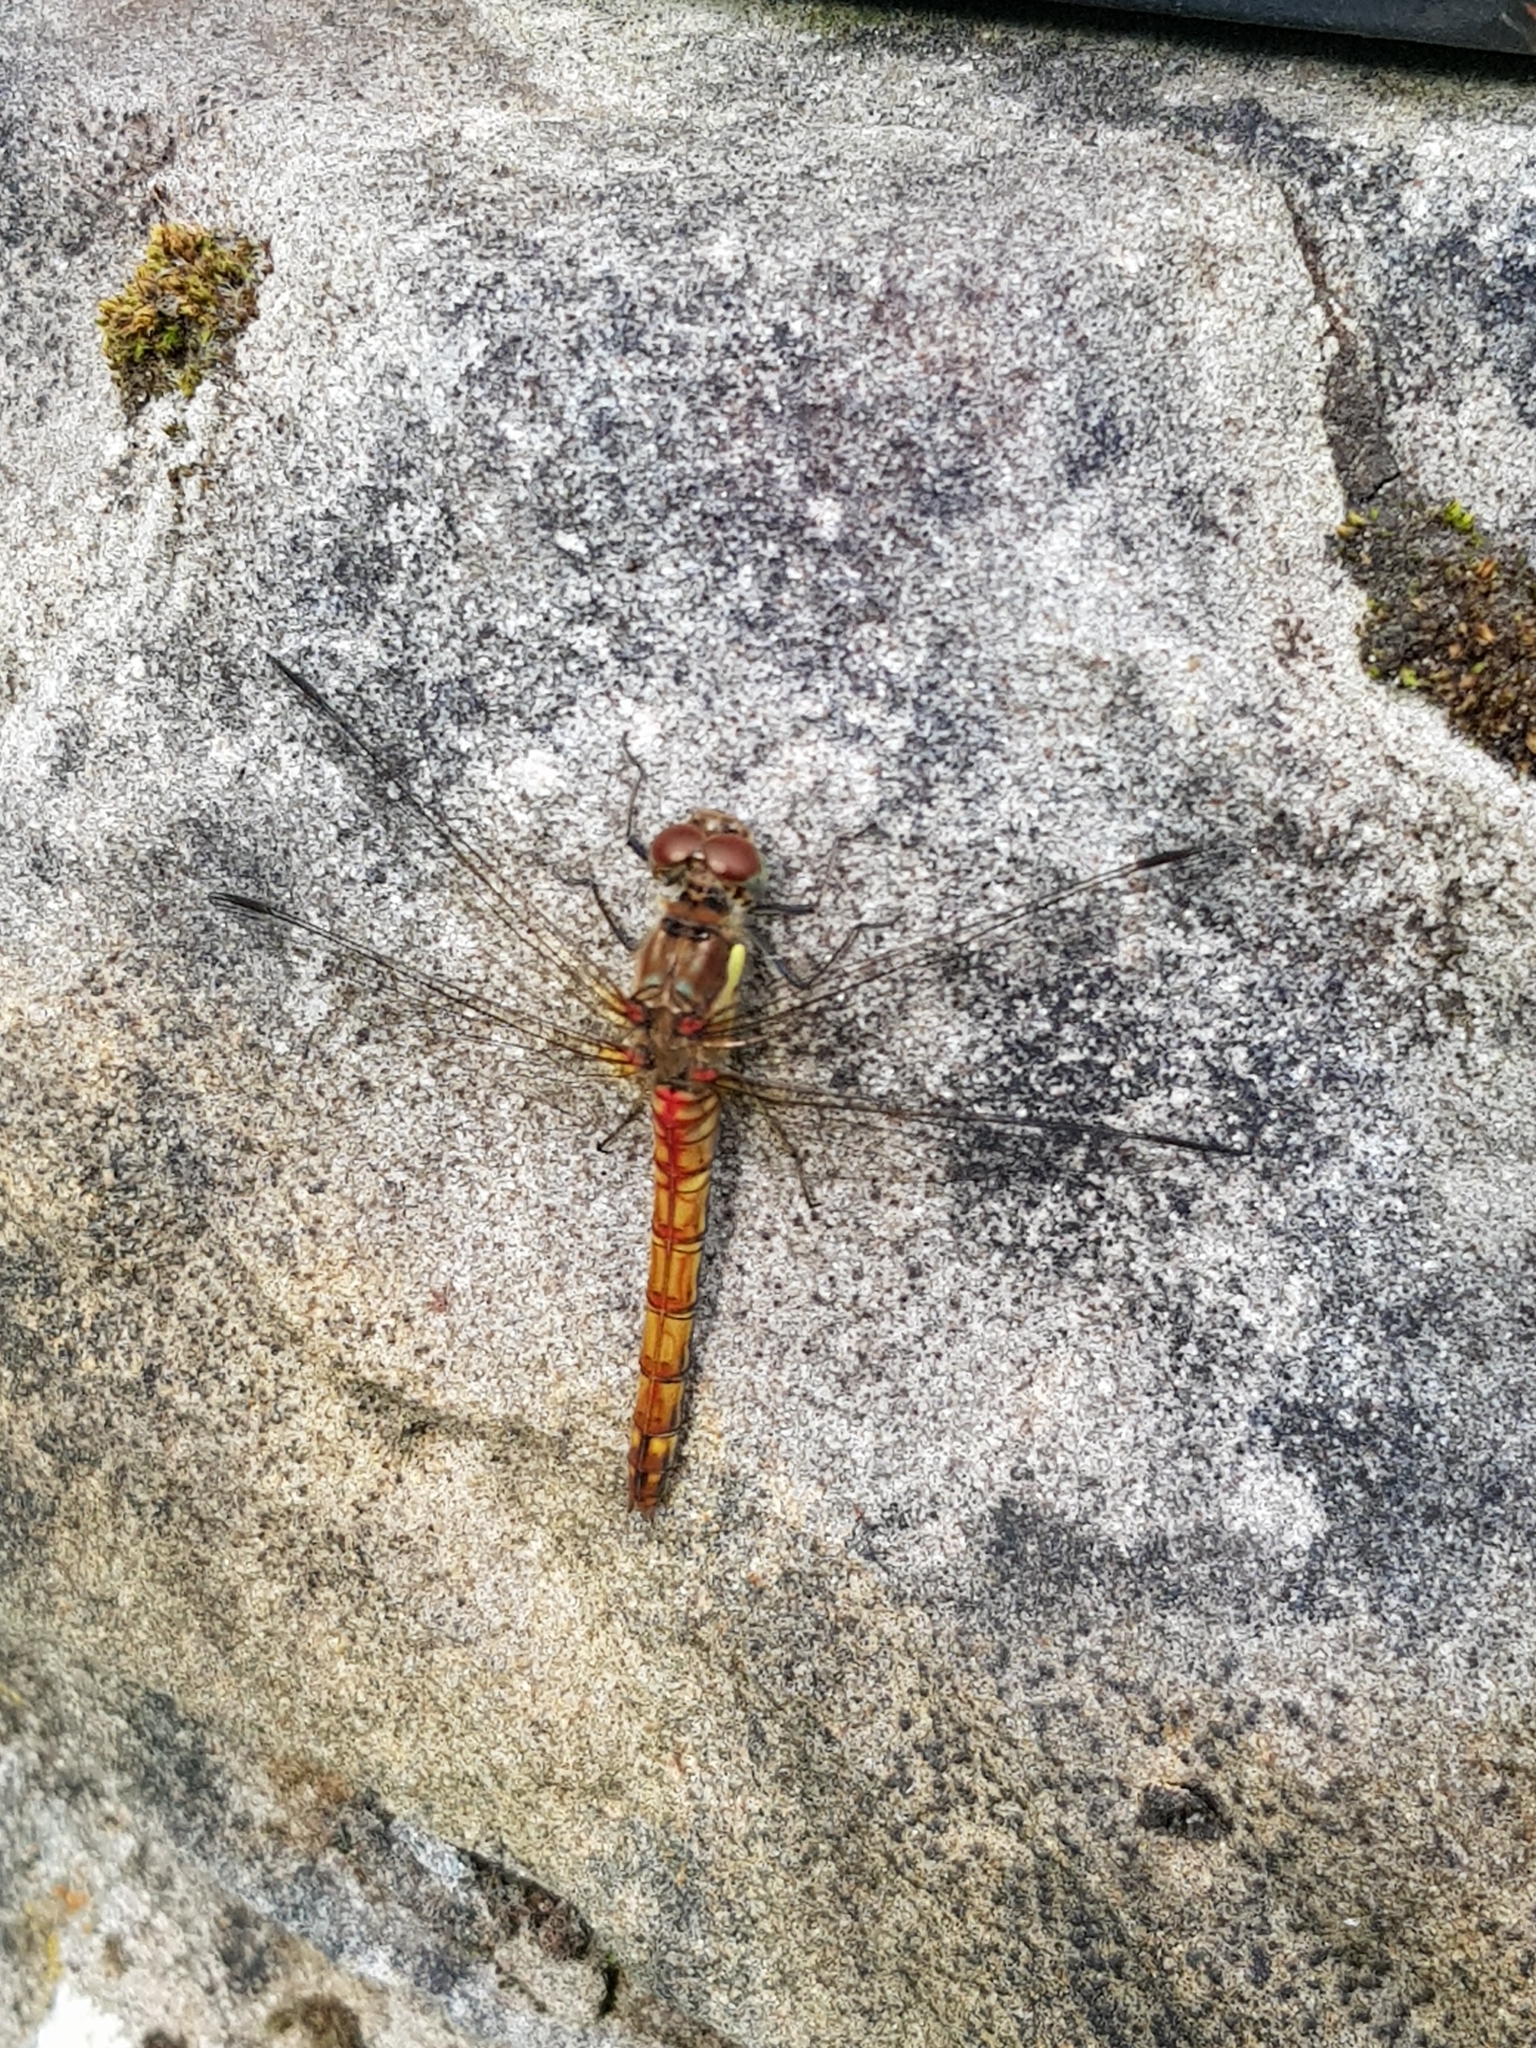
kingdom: Animalia
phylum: Arthropoda
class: Insecta
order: Odonata
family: Libellulidae
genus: Sympetrum
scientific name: Sympetrum striolatum
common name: Common darter
